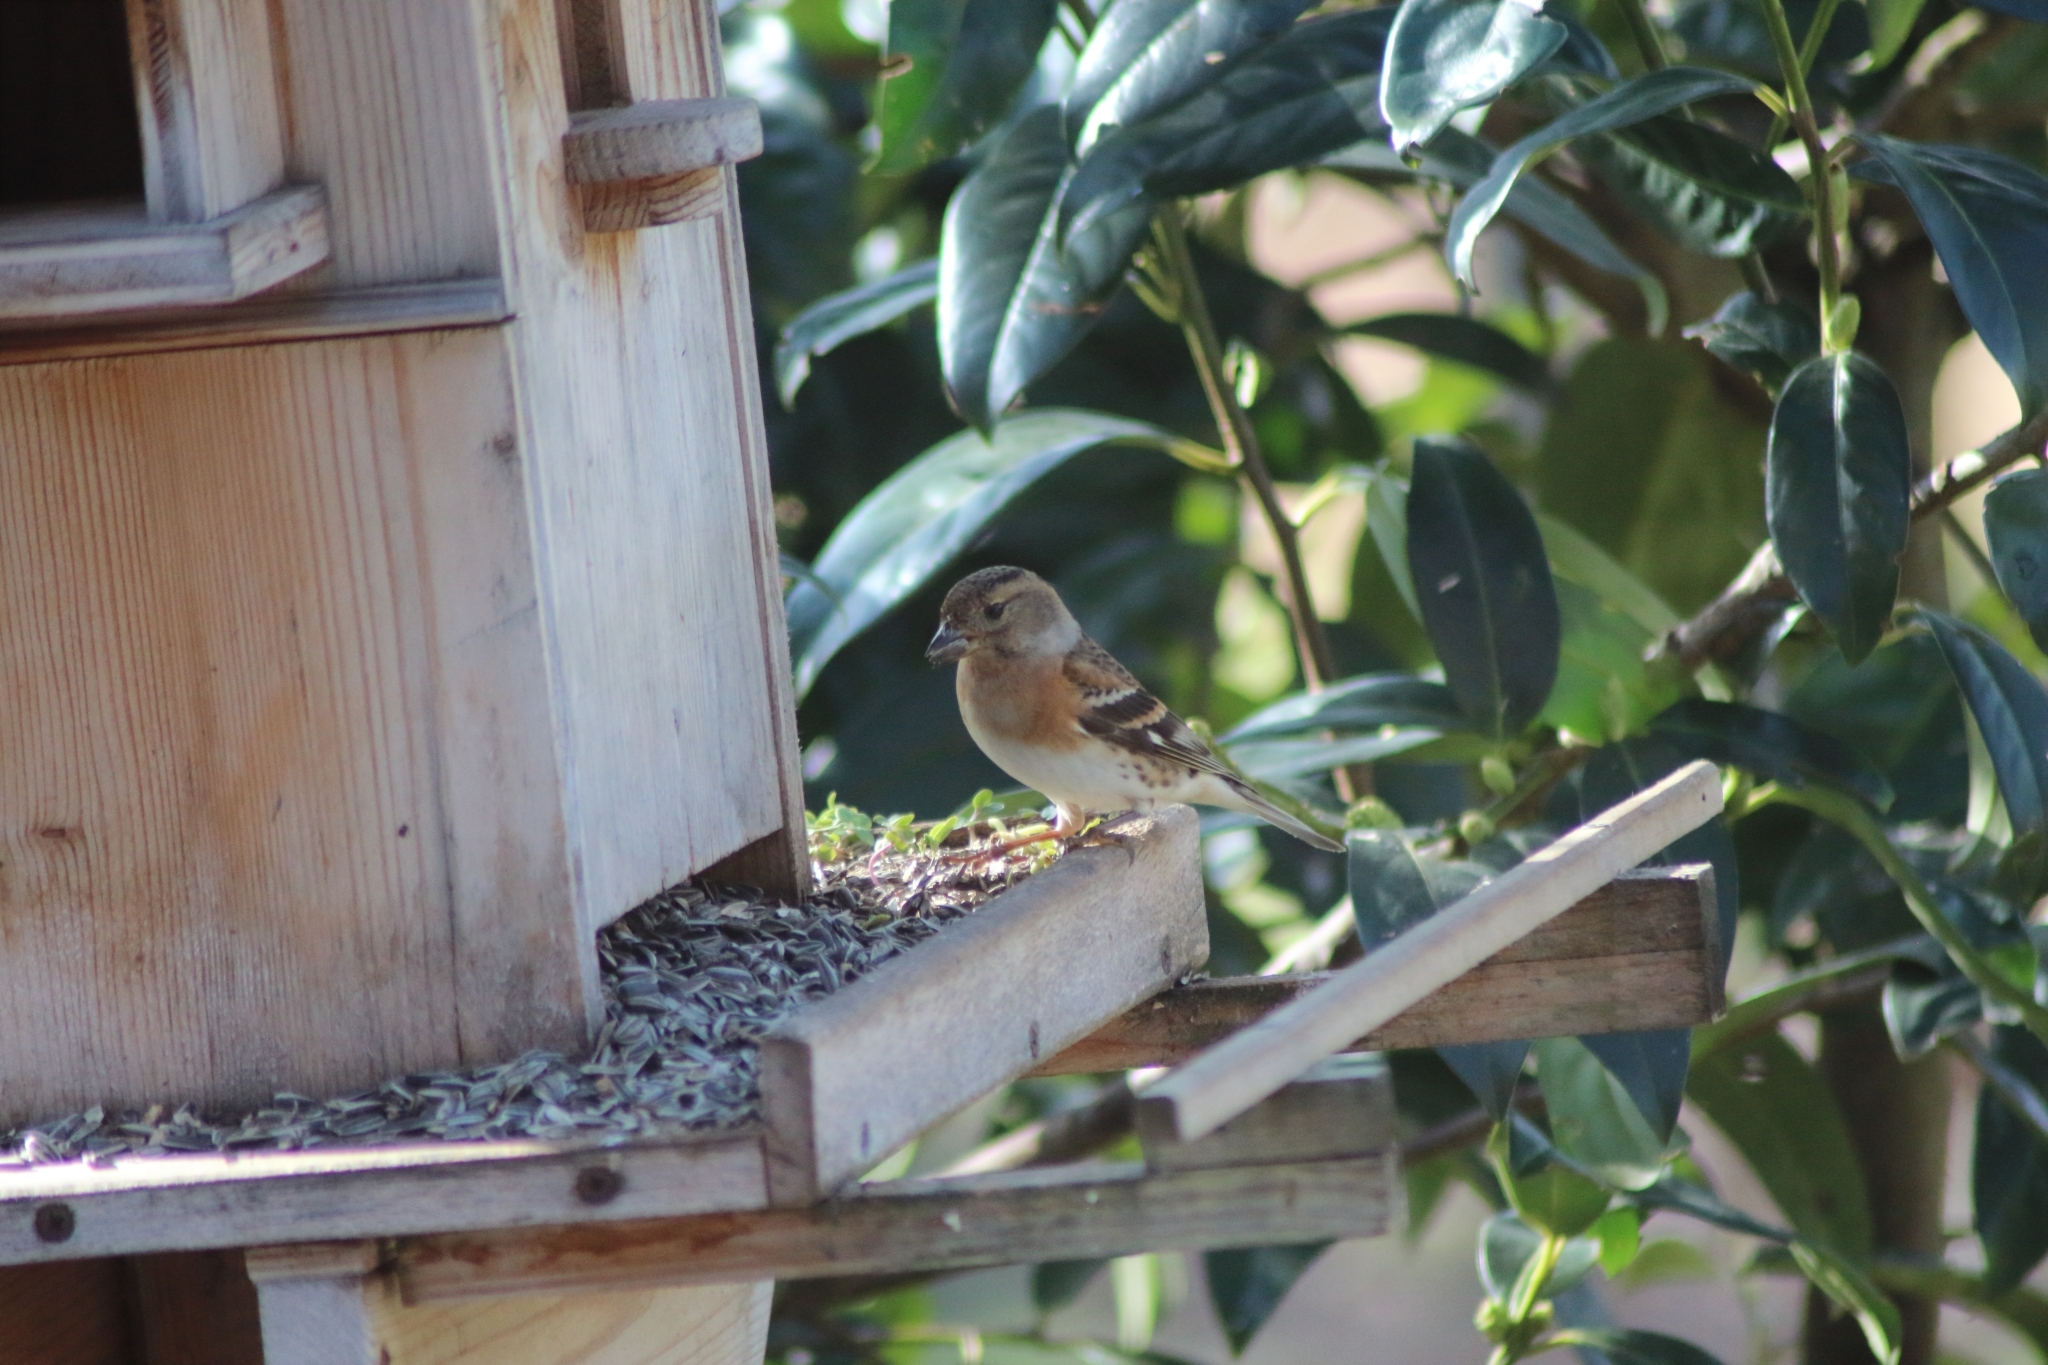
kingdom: Animalia
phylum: Chordata
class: Aves
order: Passeriformes
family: Fringillidae
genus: Fringilla
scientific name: Fringilla montifringilla
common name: Brambling
